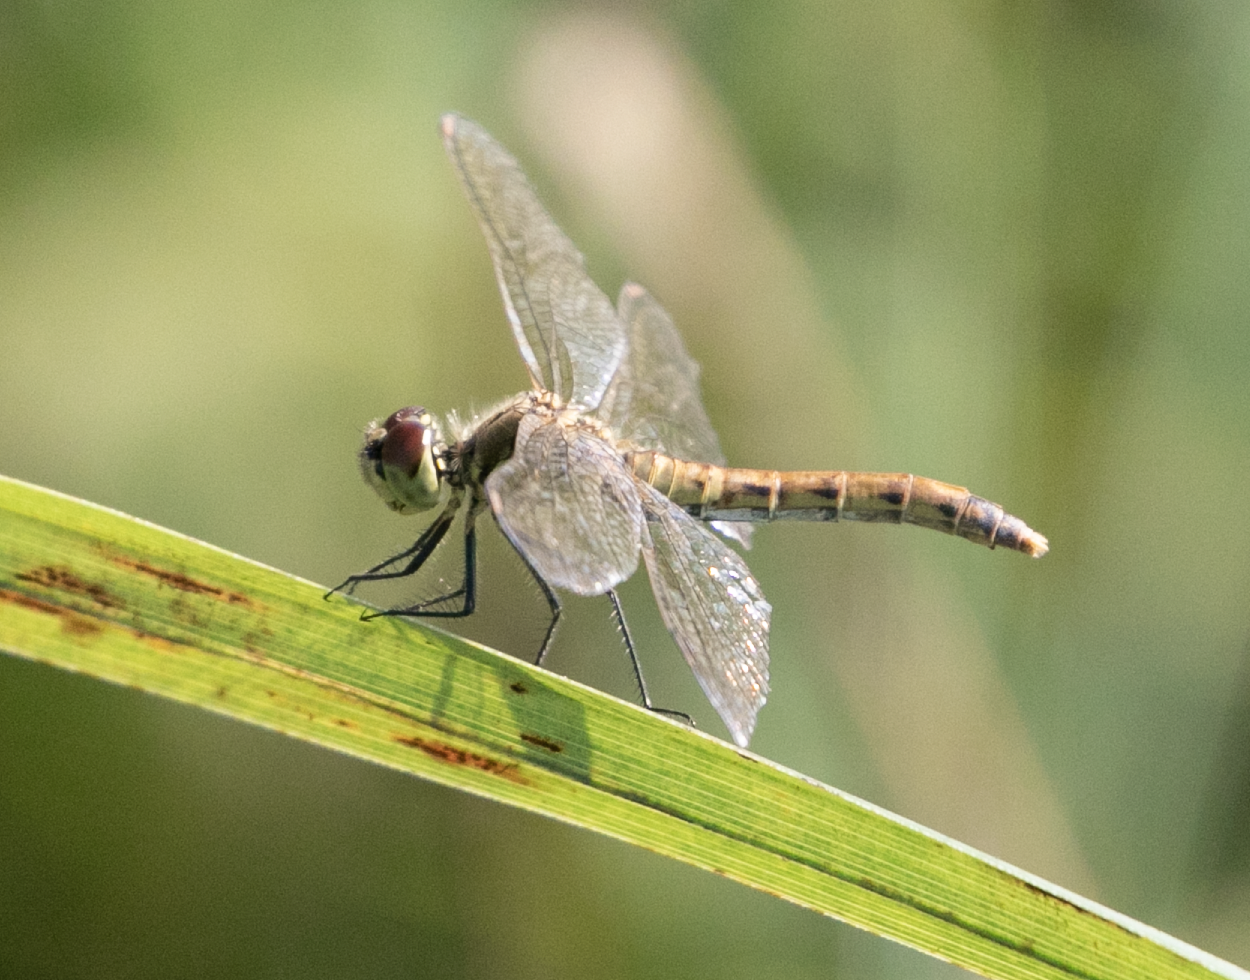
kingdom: Animalia
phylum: Arthropoda
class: Insecta
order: Odonata
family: Libellulidae
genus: Sympetrum
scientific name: Sympetrum depressiusculum
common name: Spotted darter
